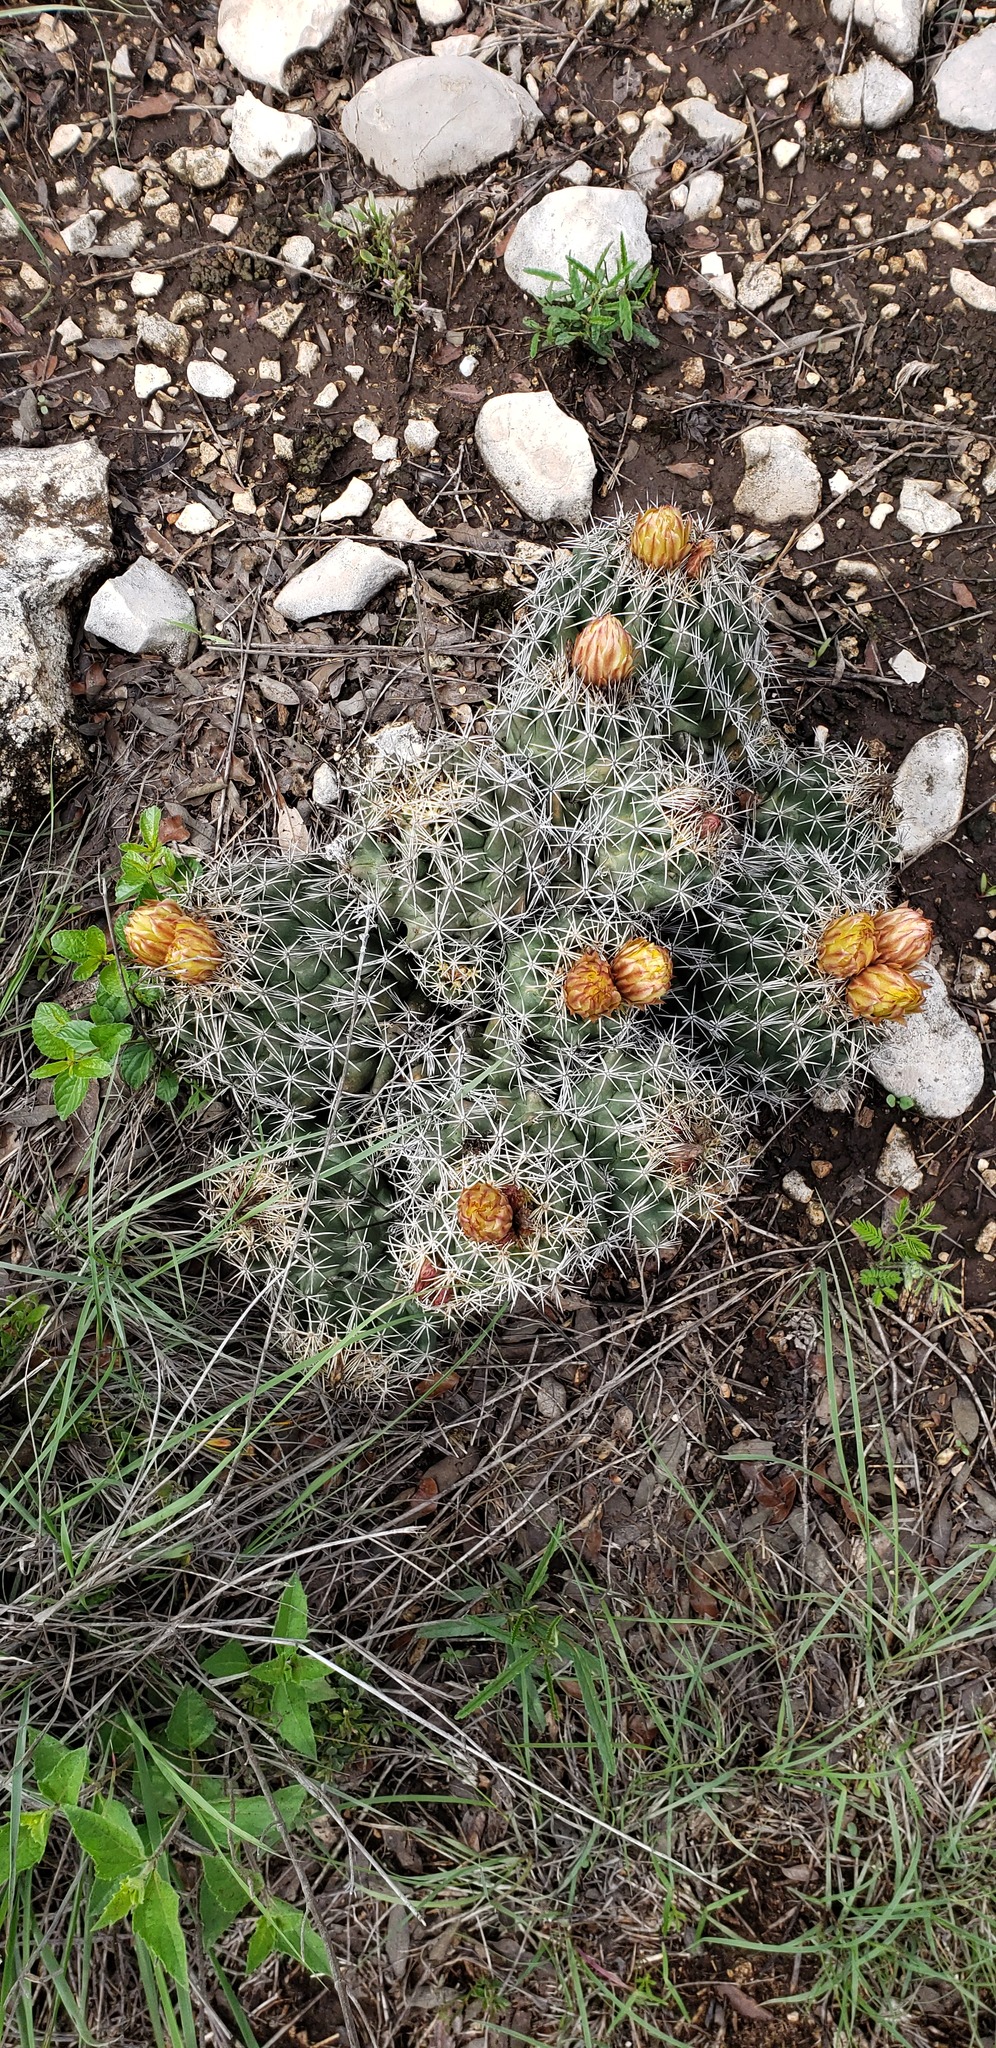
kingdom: Plantae
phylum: Tracheophyta
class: Magnoliopsida
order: Caryophyllales
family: Cactaceae
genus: Coryphantha
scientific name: Coryphantha sulcata
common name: Finger cactus
